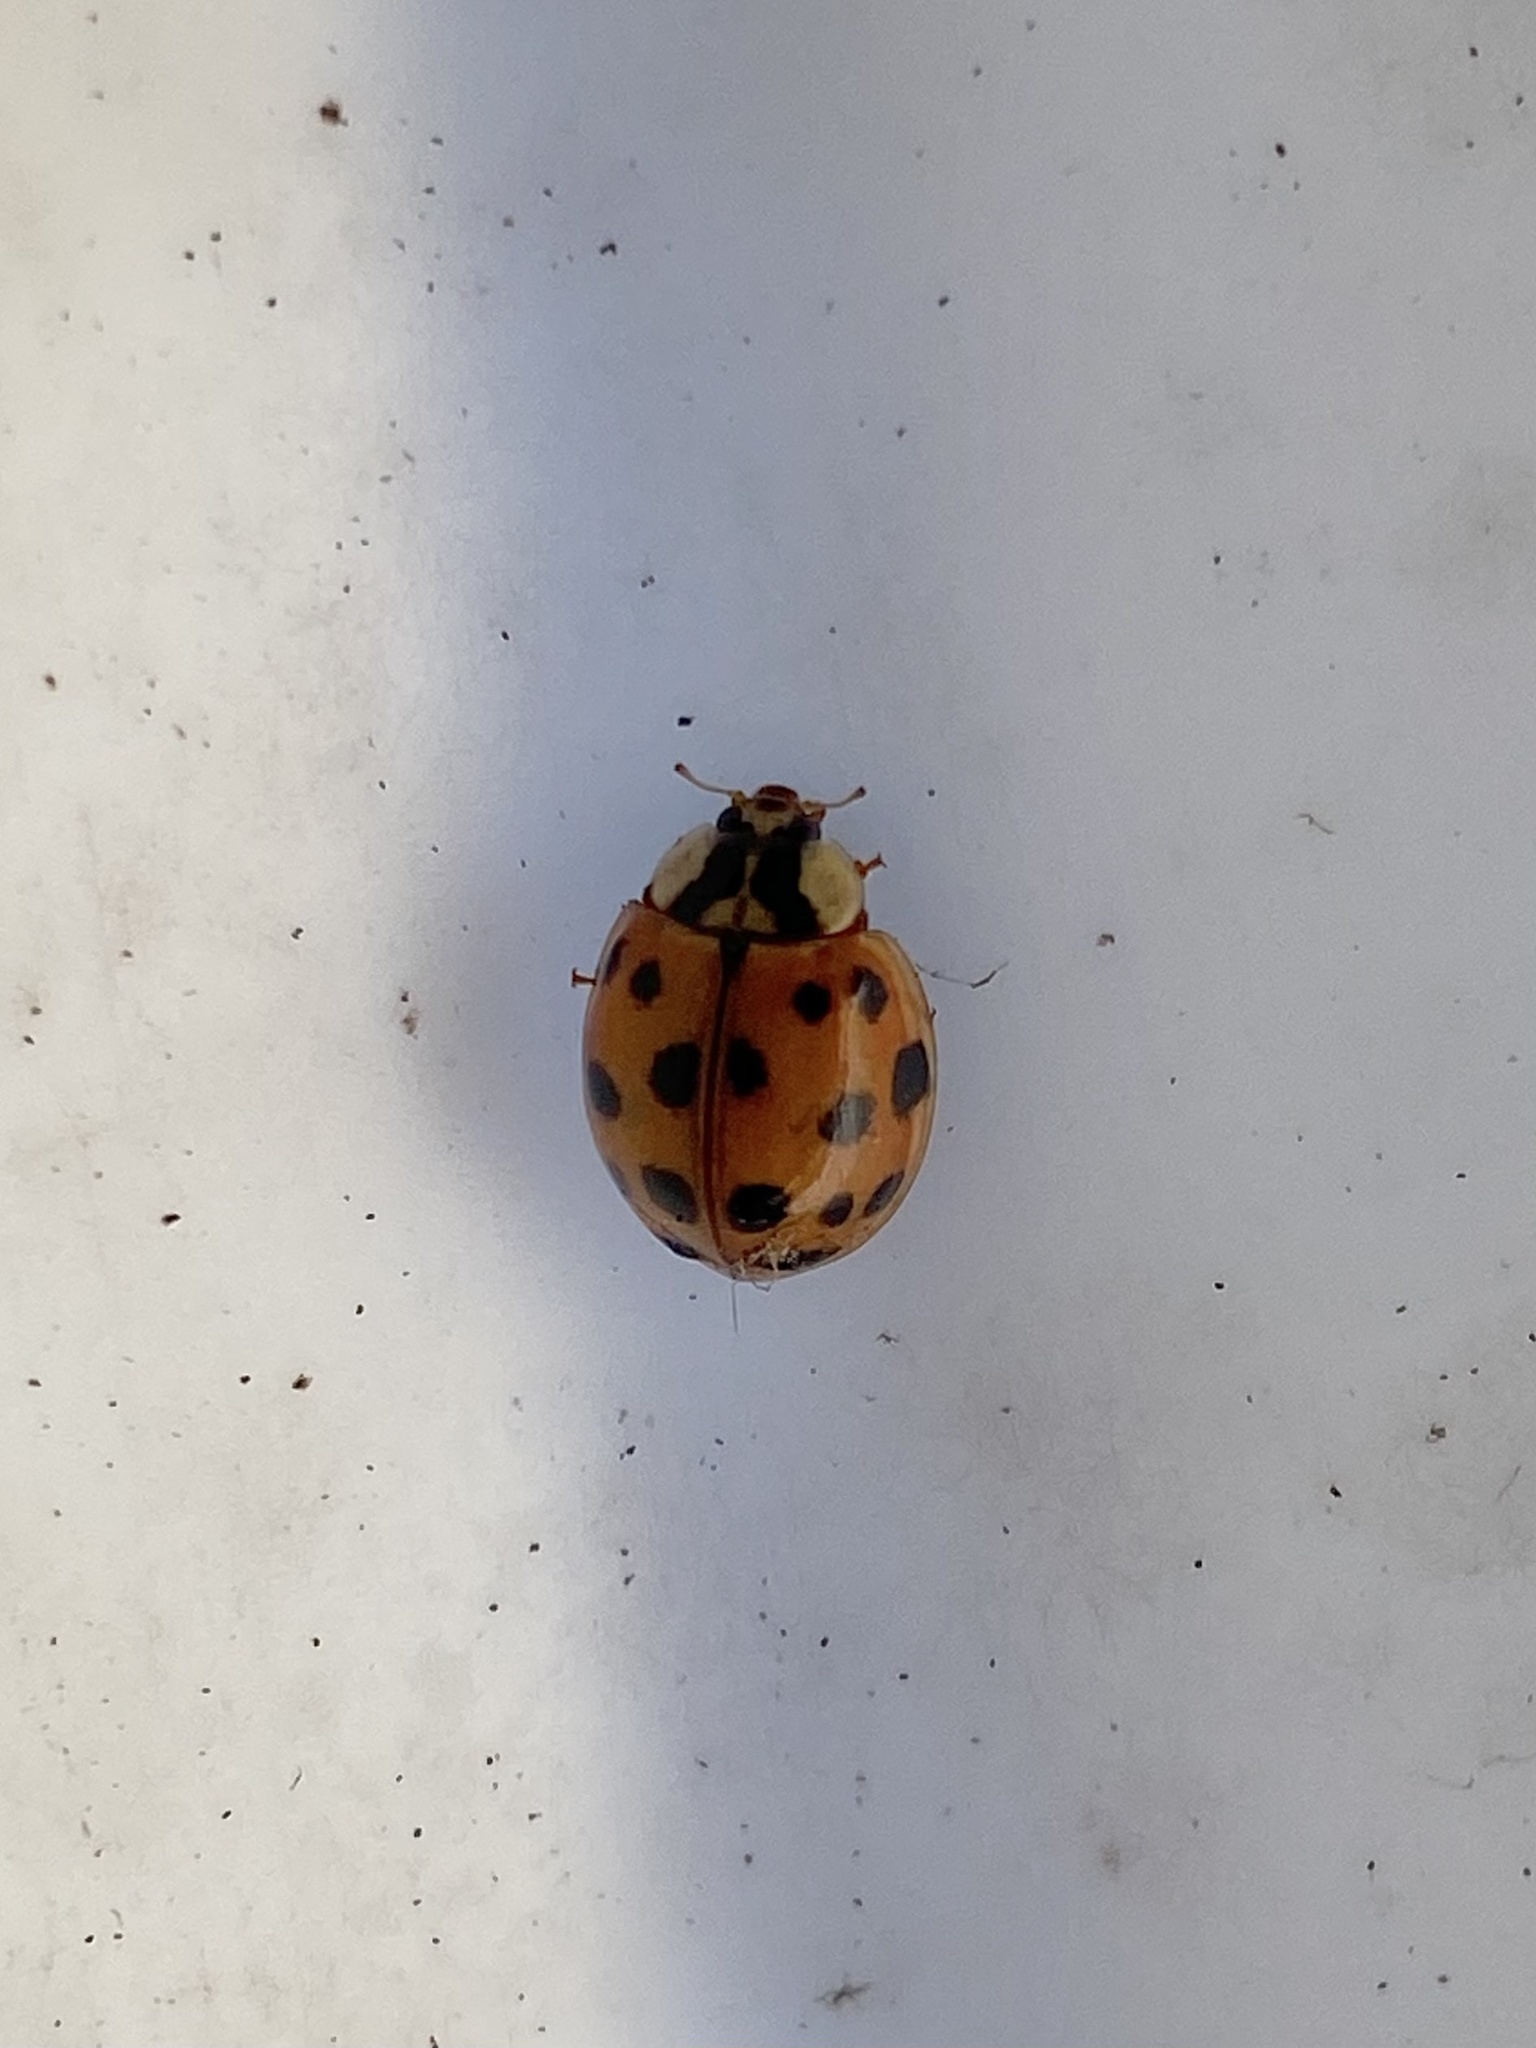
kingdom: Animalia
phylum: Arthropoda
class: Insecta
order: Coleoptera
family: Coccinellidae
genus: Harmonia
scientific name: Harmonia axyridis
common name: Harlequin ladybird
